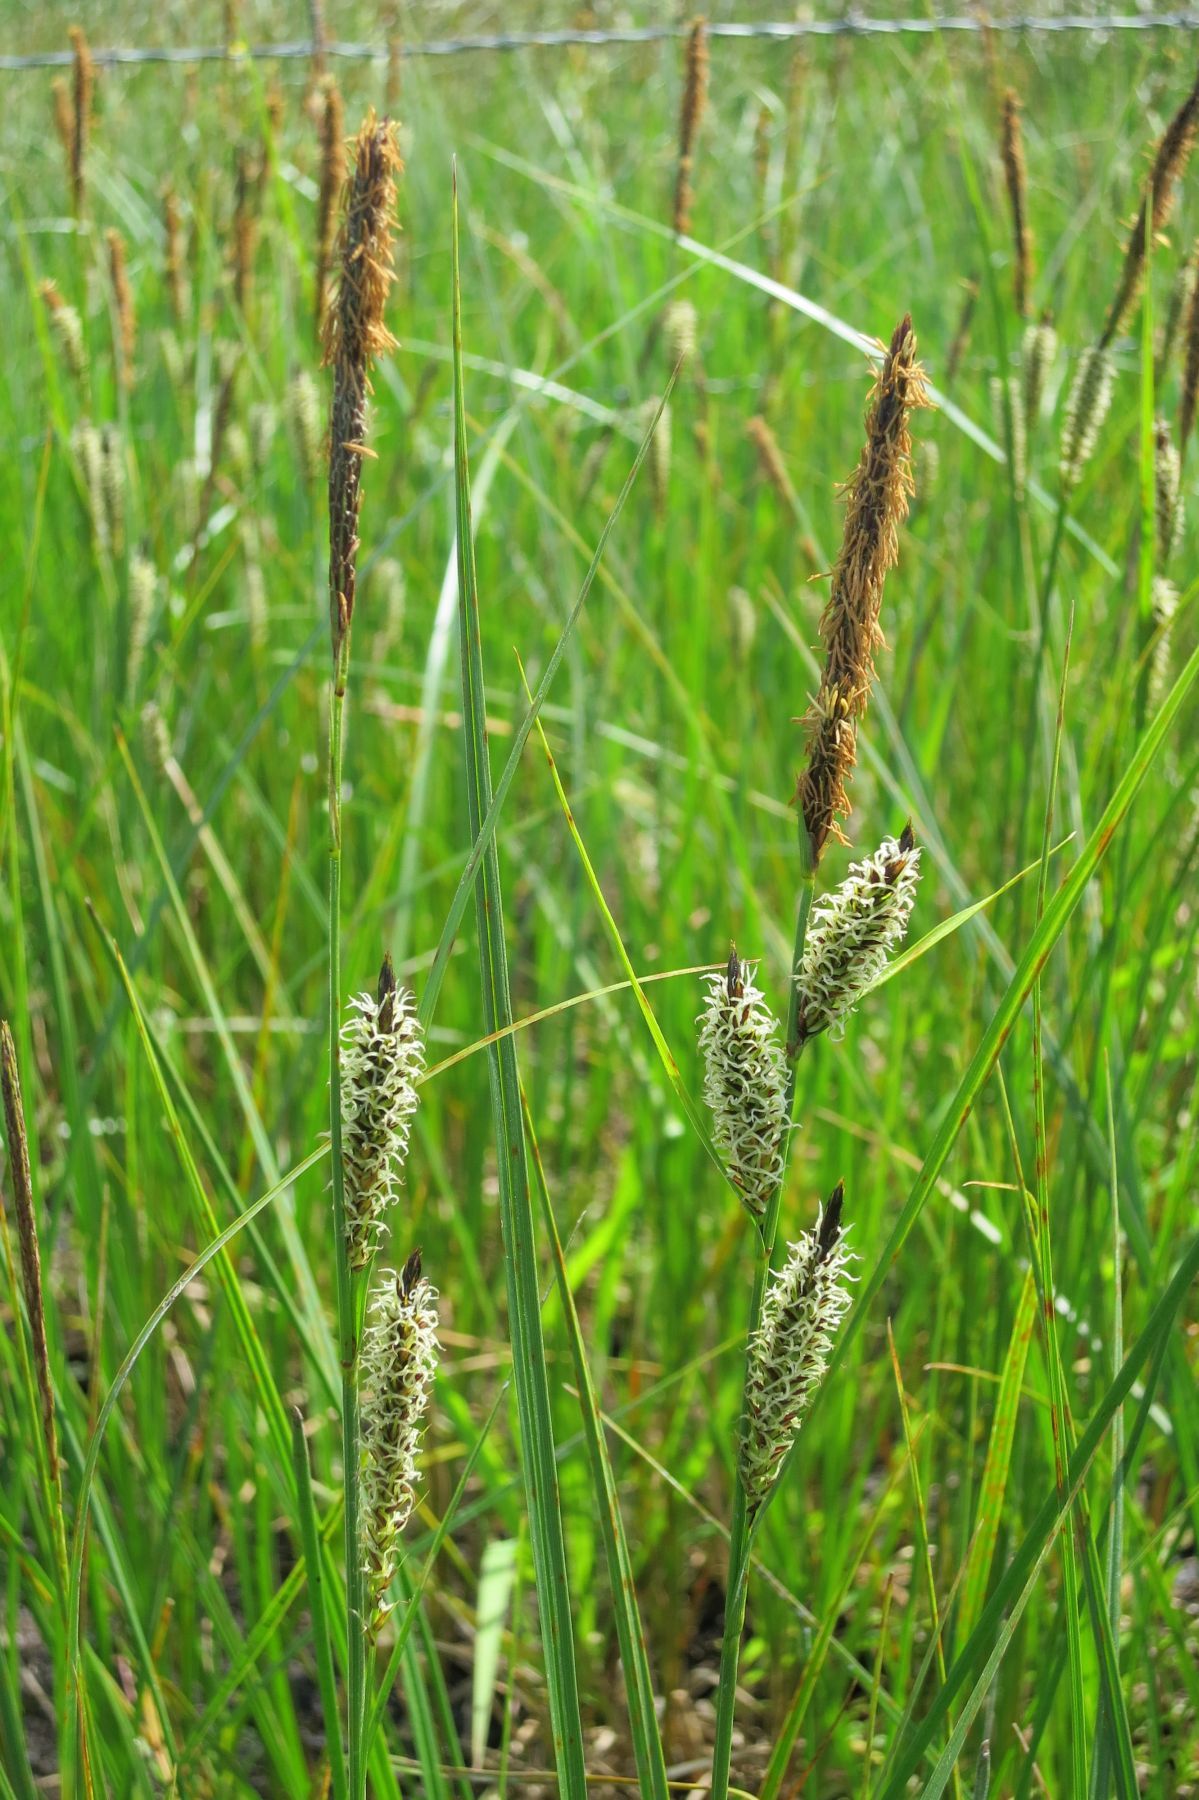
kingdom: Plantae
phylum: Tracheophyta
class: Liliopsida
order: Poales
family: Cyperaceae
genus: Carex
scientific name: Carex pellita
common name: Woolly sedge
